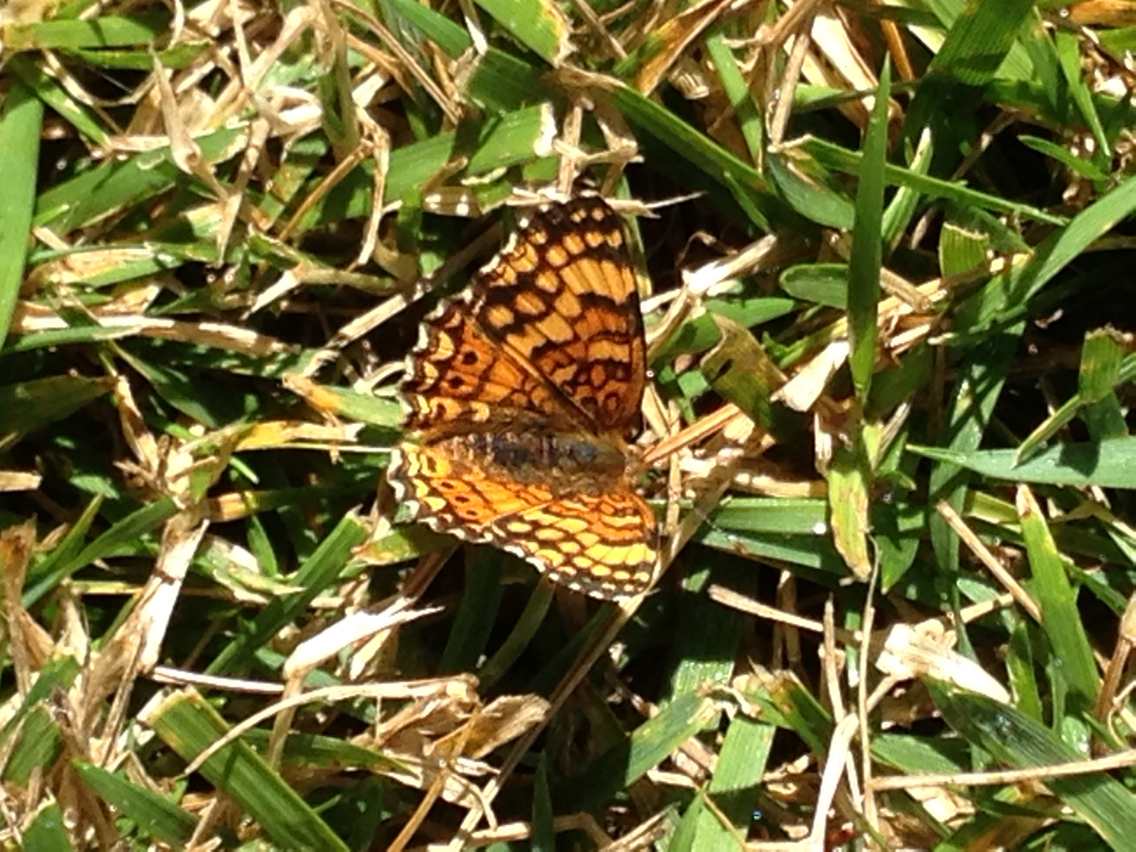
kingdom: Animalia
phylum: Arthropoda
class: Insecta
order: Lepidoptera
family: Nymphalidae
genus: Eresia
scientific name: Eresia aveyrona
